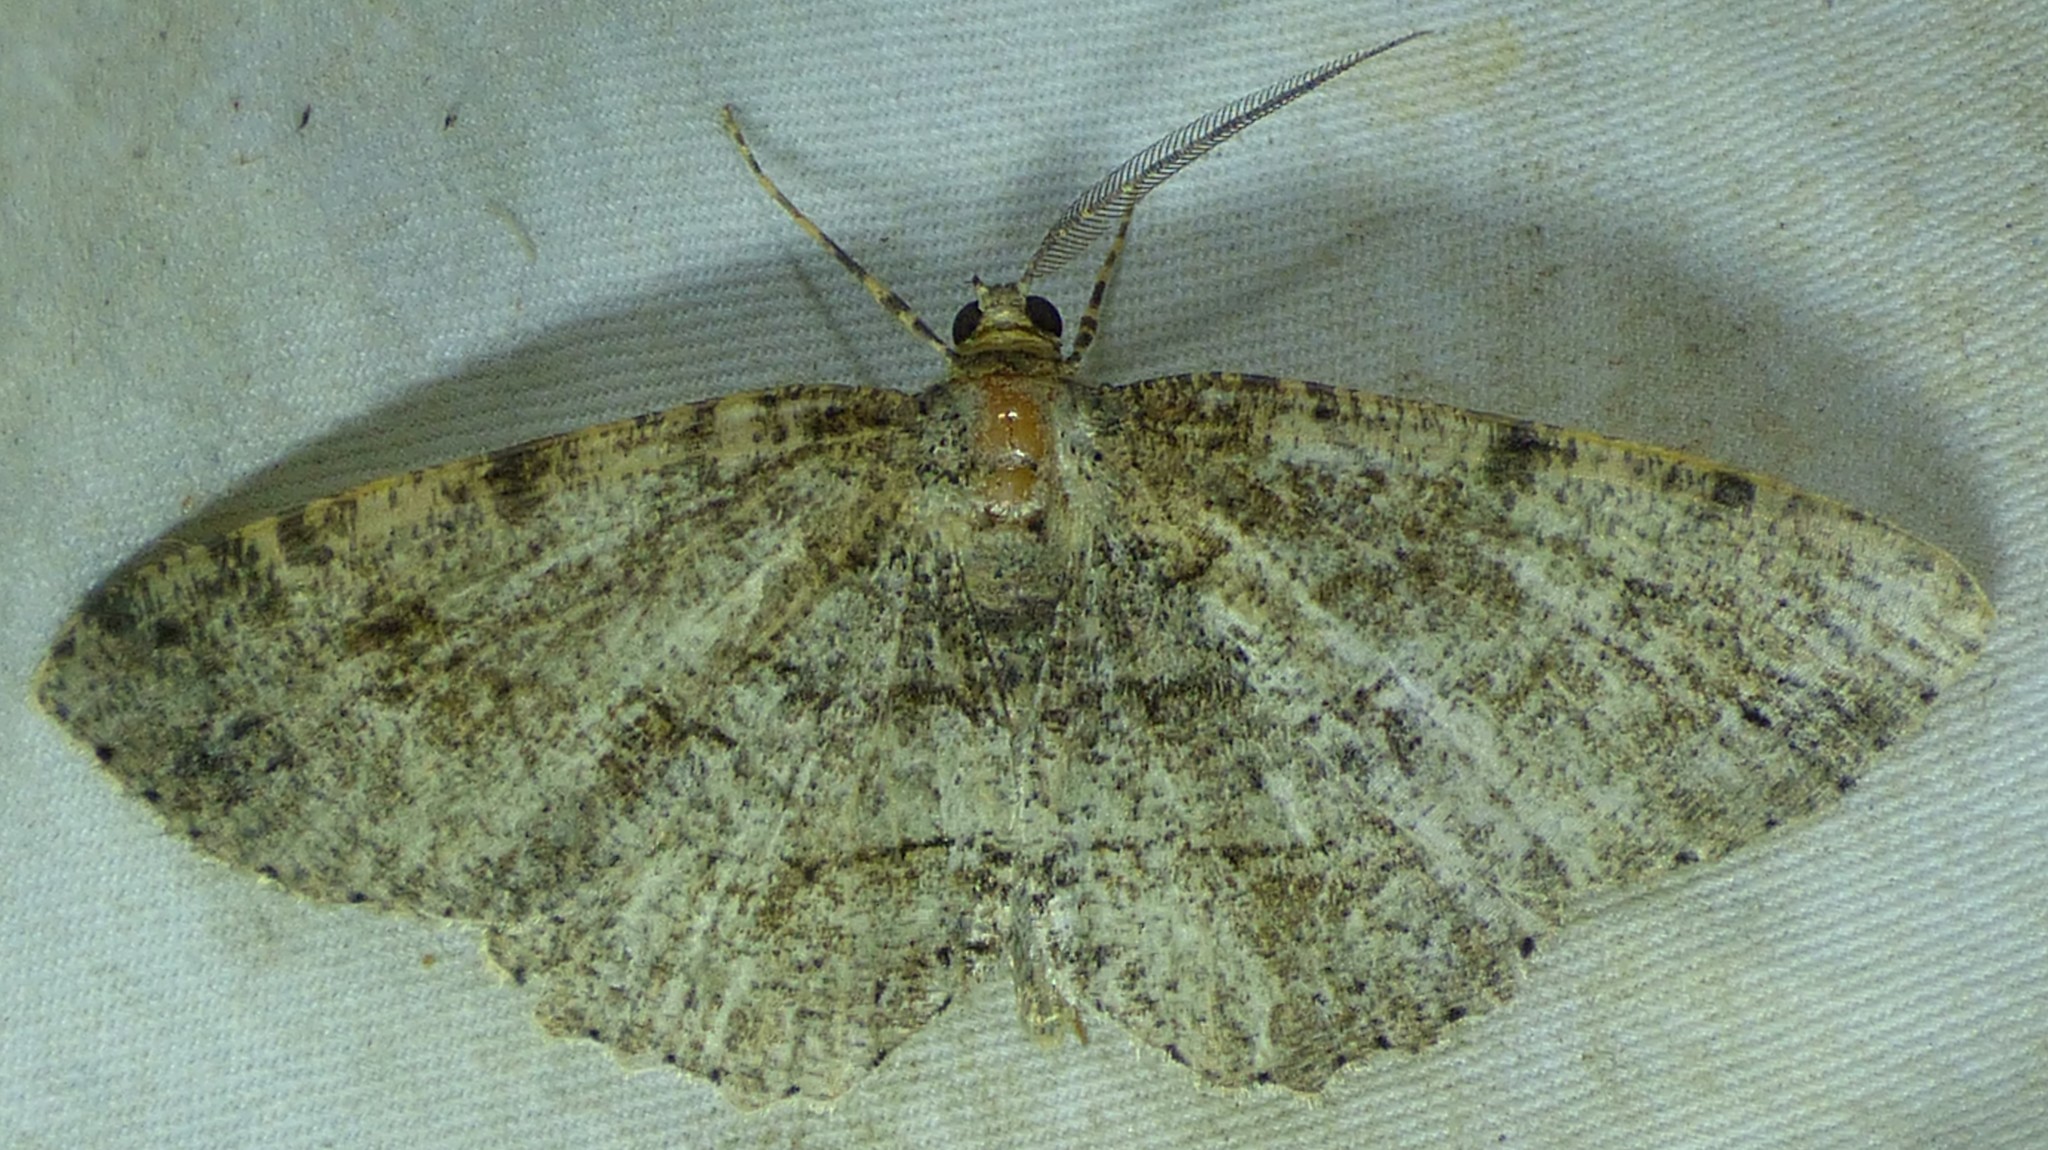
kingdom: Animalia
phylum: Arthropoda
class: Insecta
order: Lepidoptera
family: Geometridae
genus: Melanolophia
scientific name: Melanolophia canadaria
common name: Canadian melanolophia
